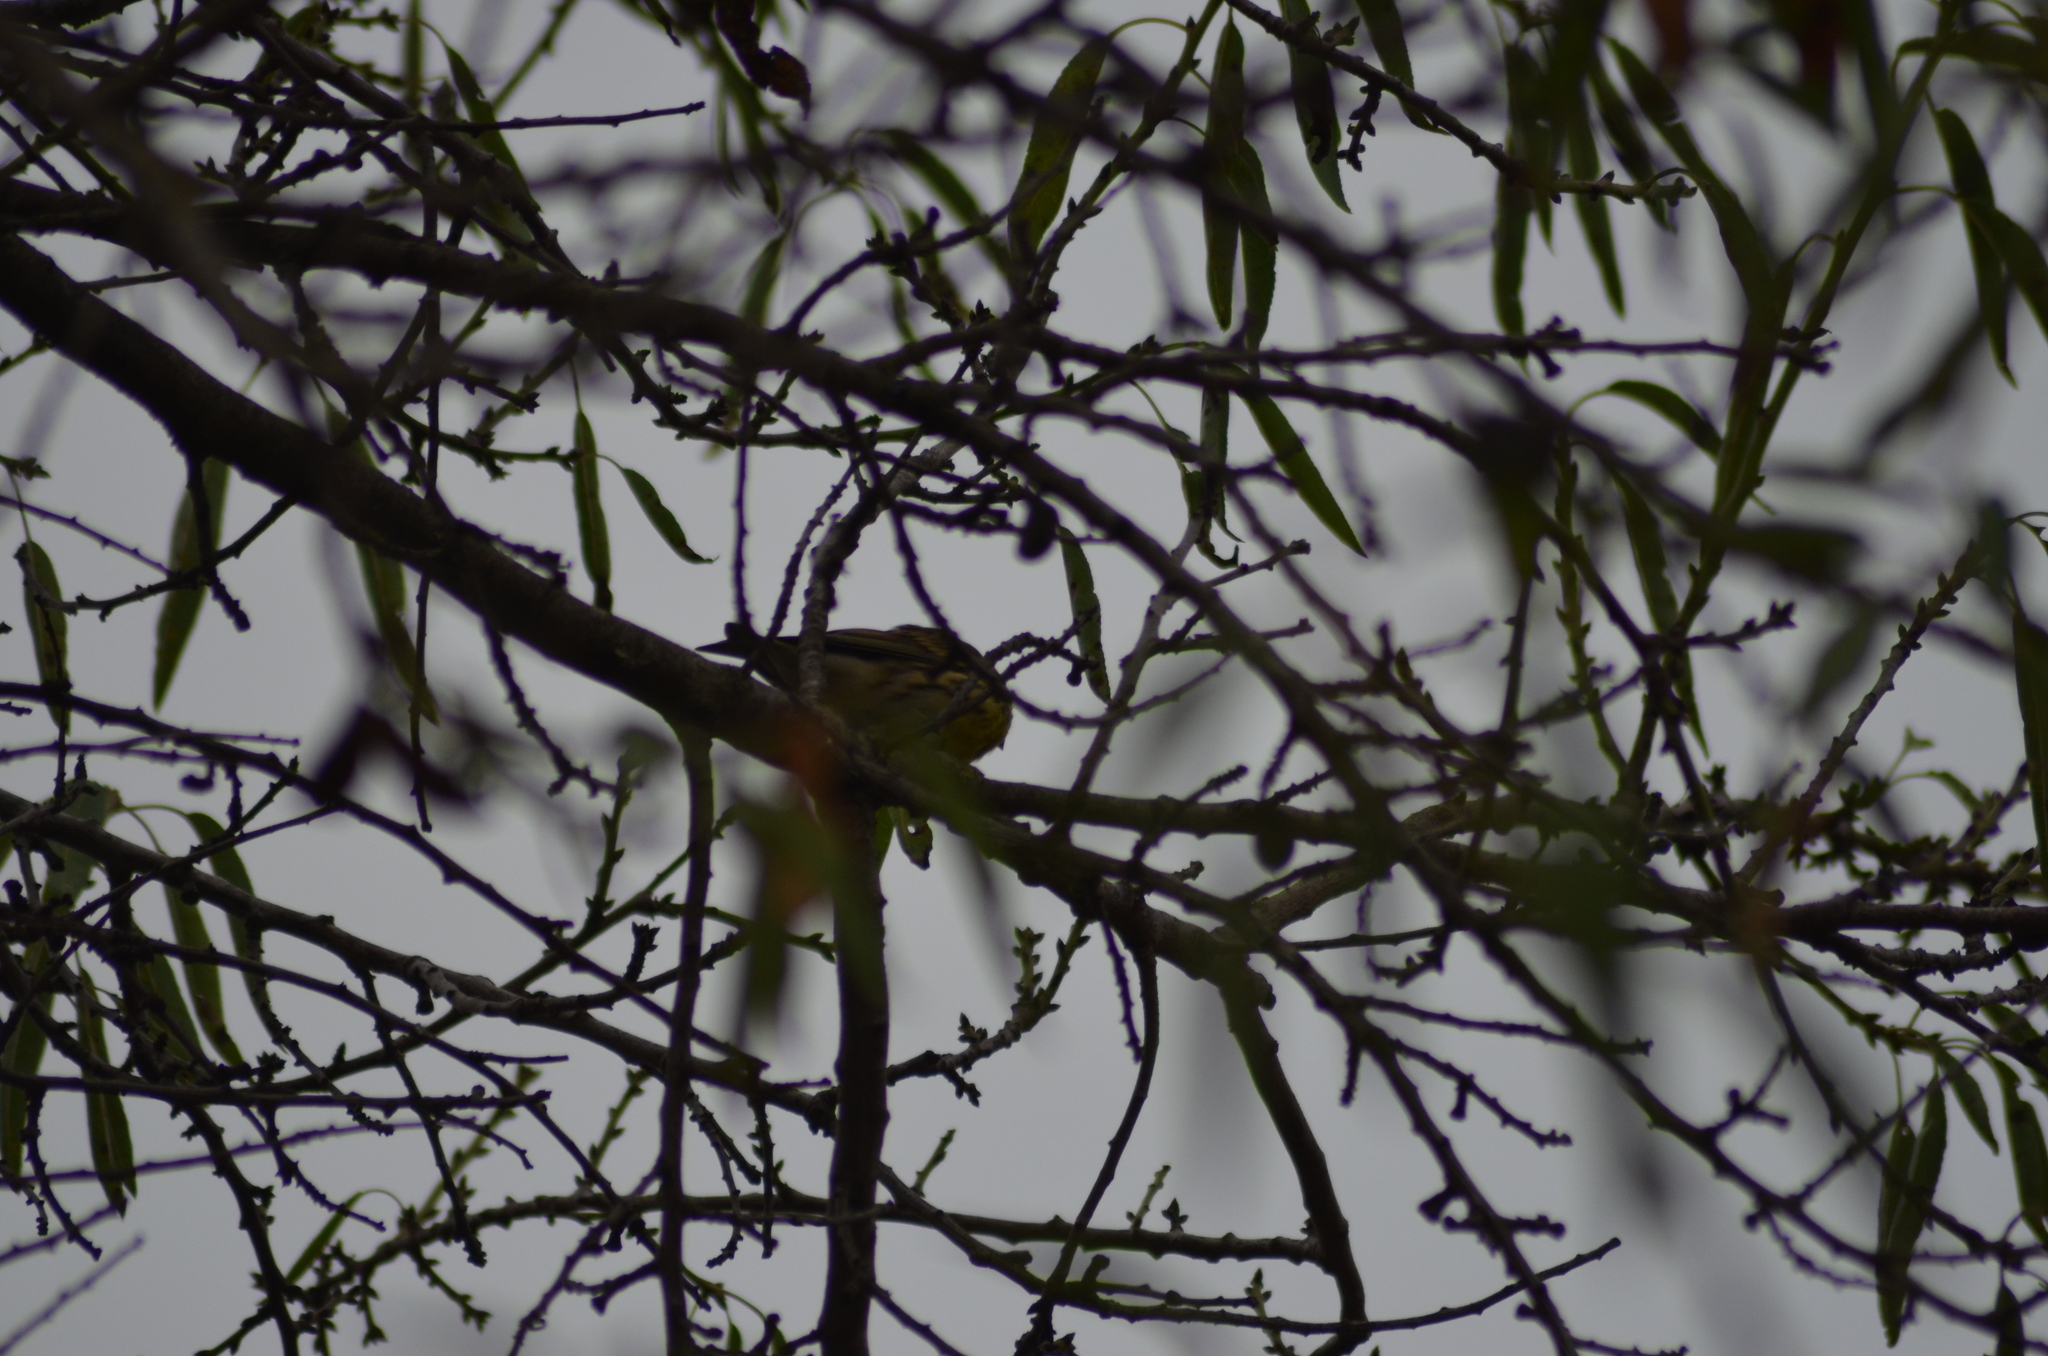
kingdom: Animalia
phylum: Chordata
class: Aves
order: Passeriformes
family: Fringillidae
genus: Serinus
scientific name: Serinus serinus
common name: European serin
